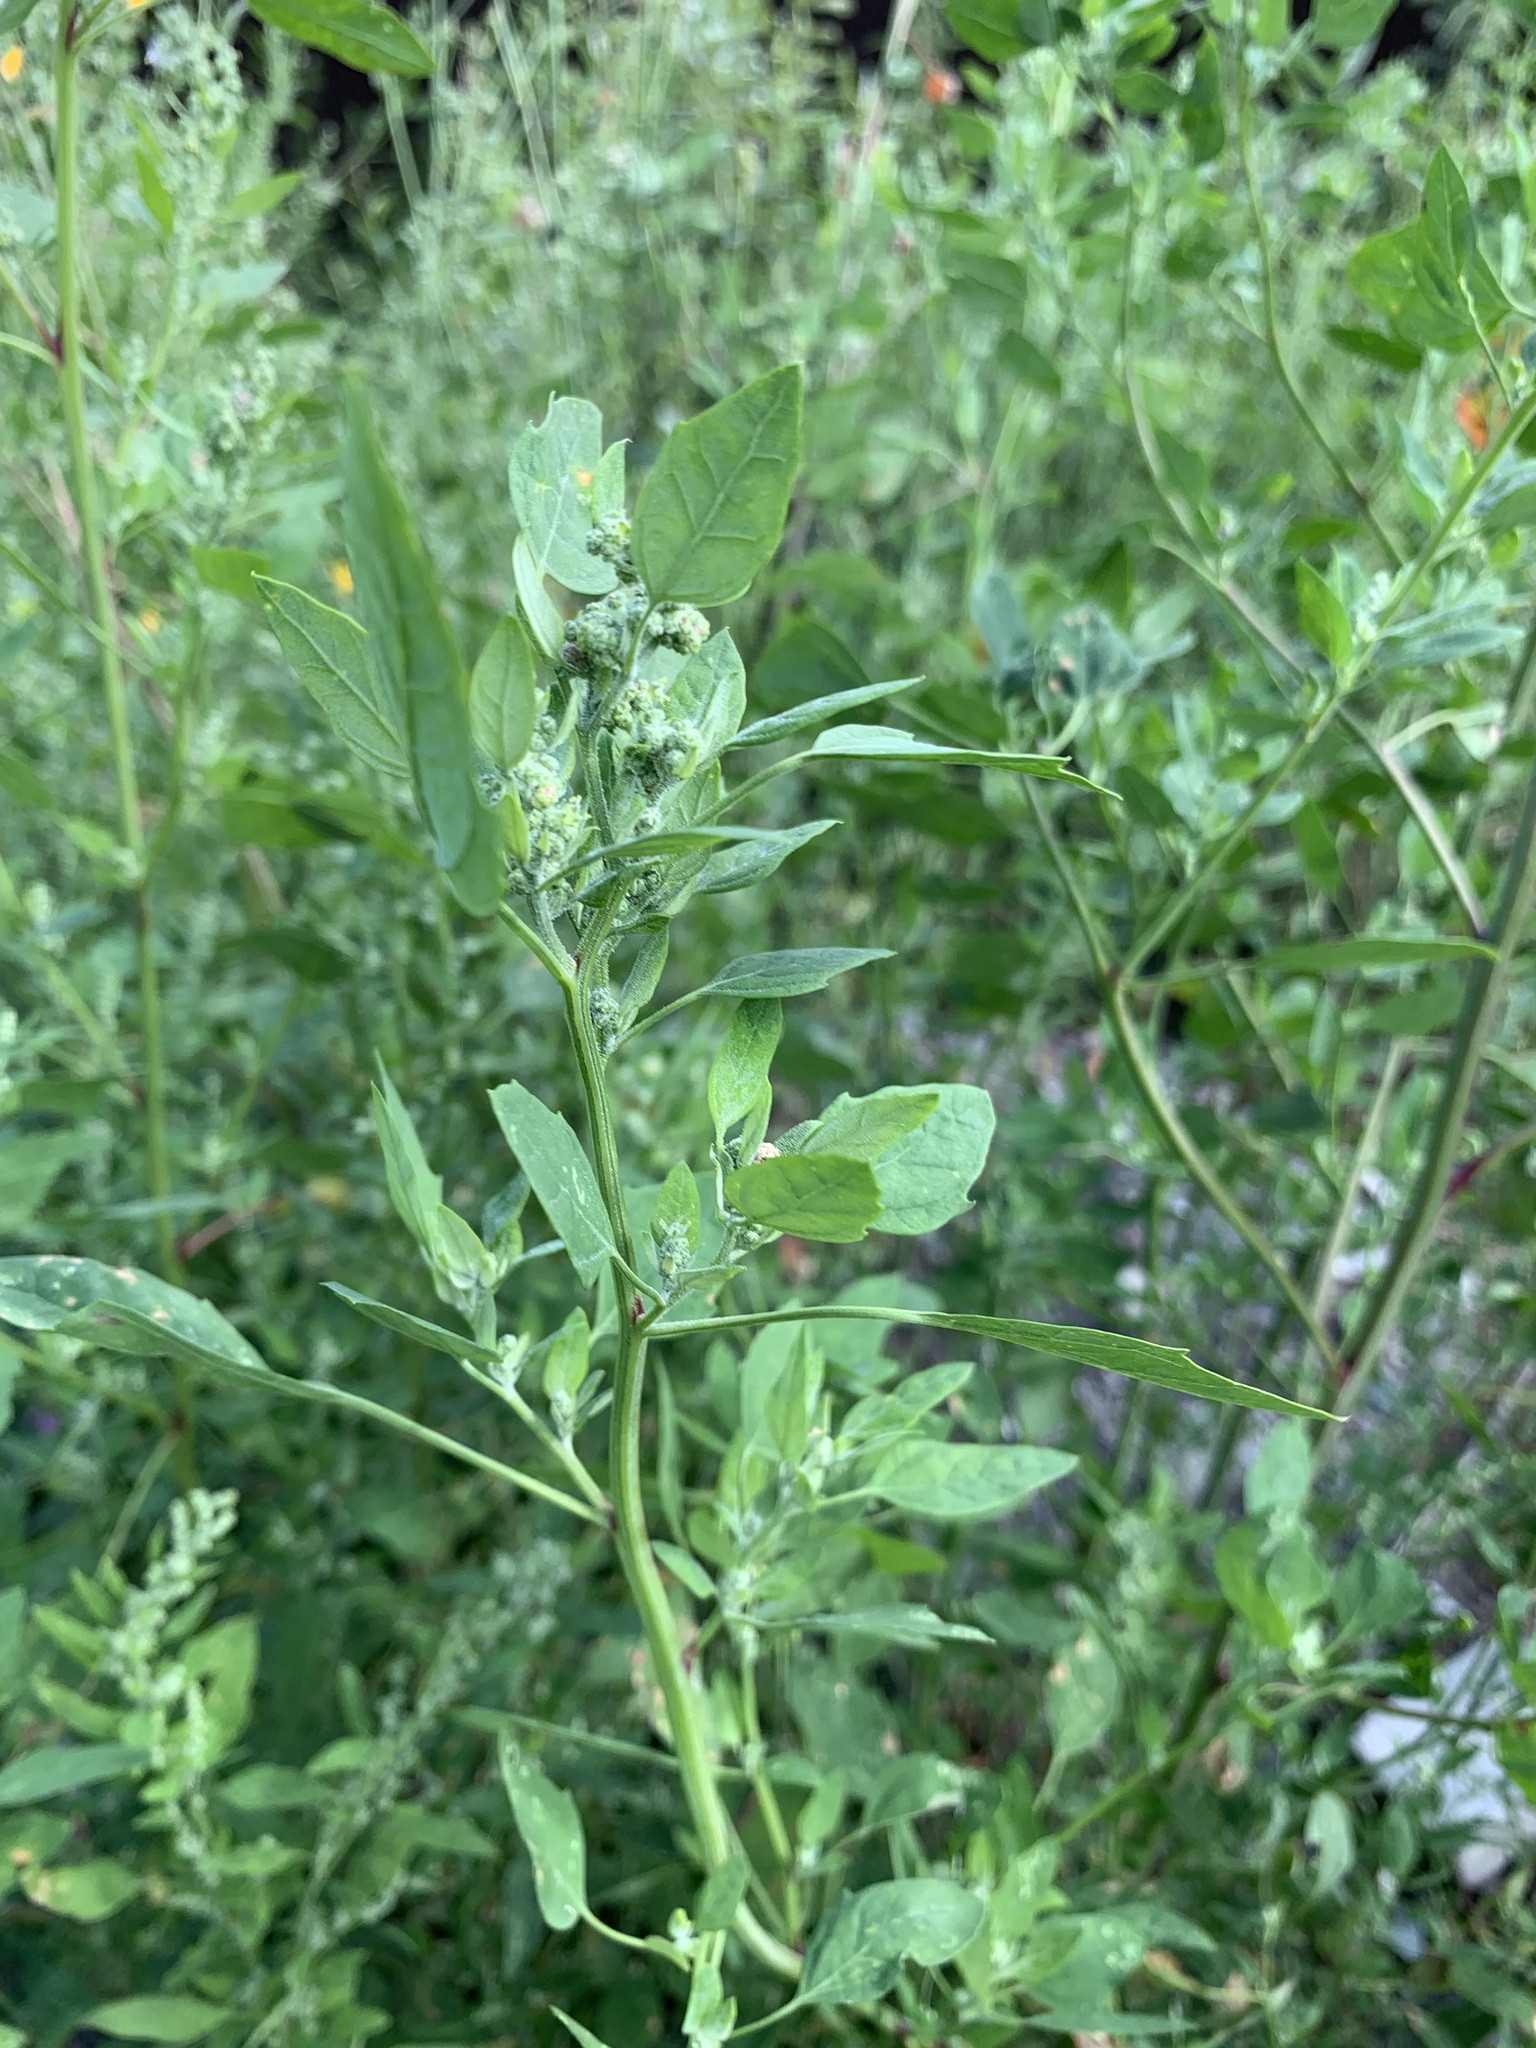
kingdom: Plantae
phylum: Tracheophyta
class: Magnoliopsida
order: Caryophyllales
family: Amaranthaceae
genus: Chenopodium
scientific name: Chenopodium album
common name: Fat-hen
